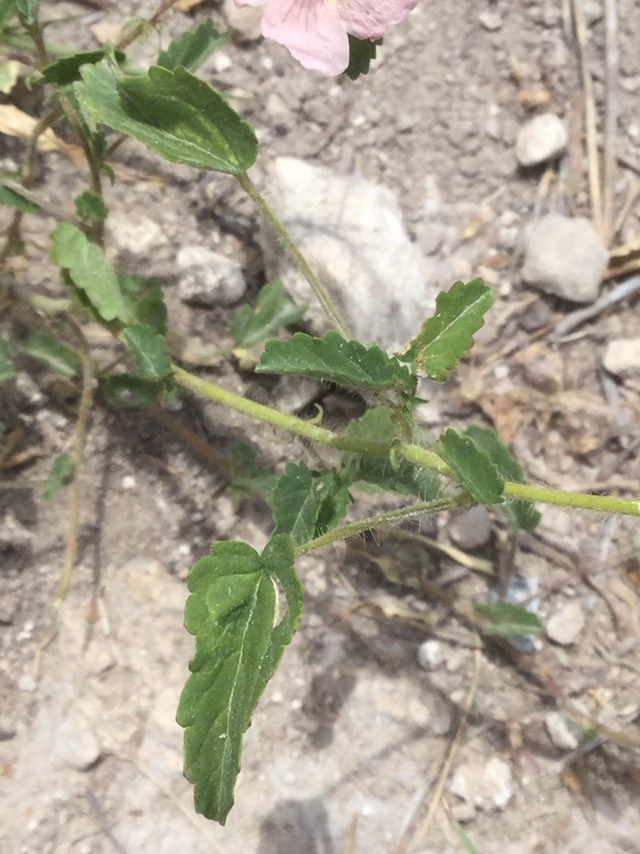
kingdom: Plantae
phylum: Tracheophyta
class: Magnoliopsida
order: Malvales
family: Malvaceae
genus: Sida
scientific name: Sida abutilifolia
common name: Spreading fanpetals
